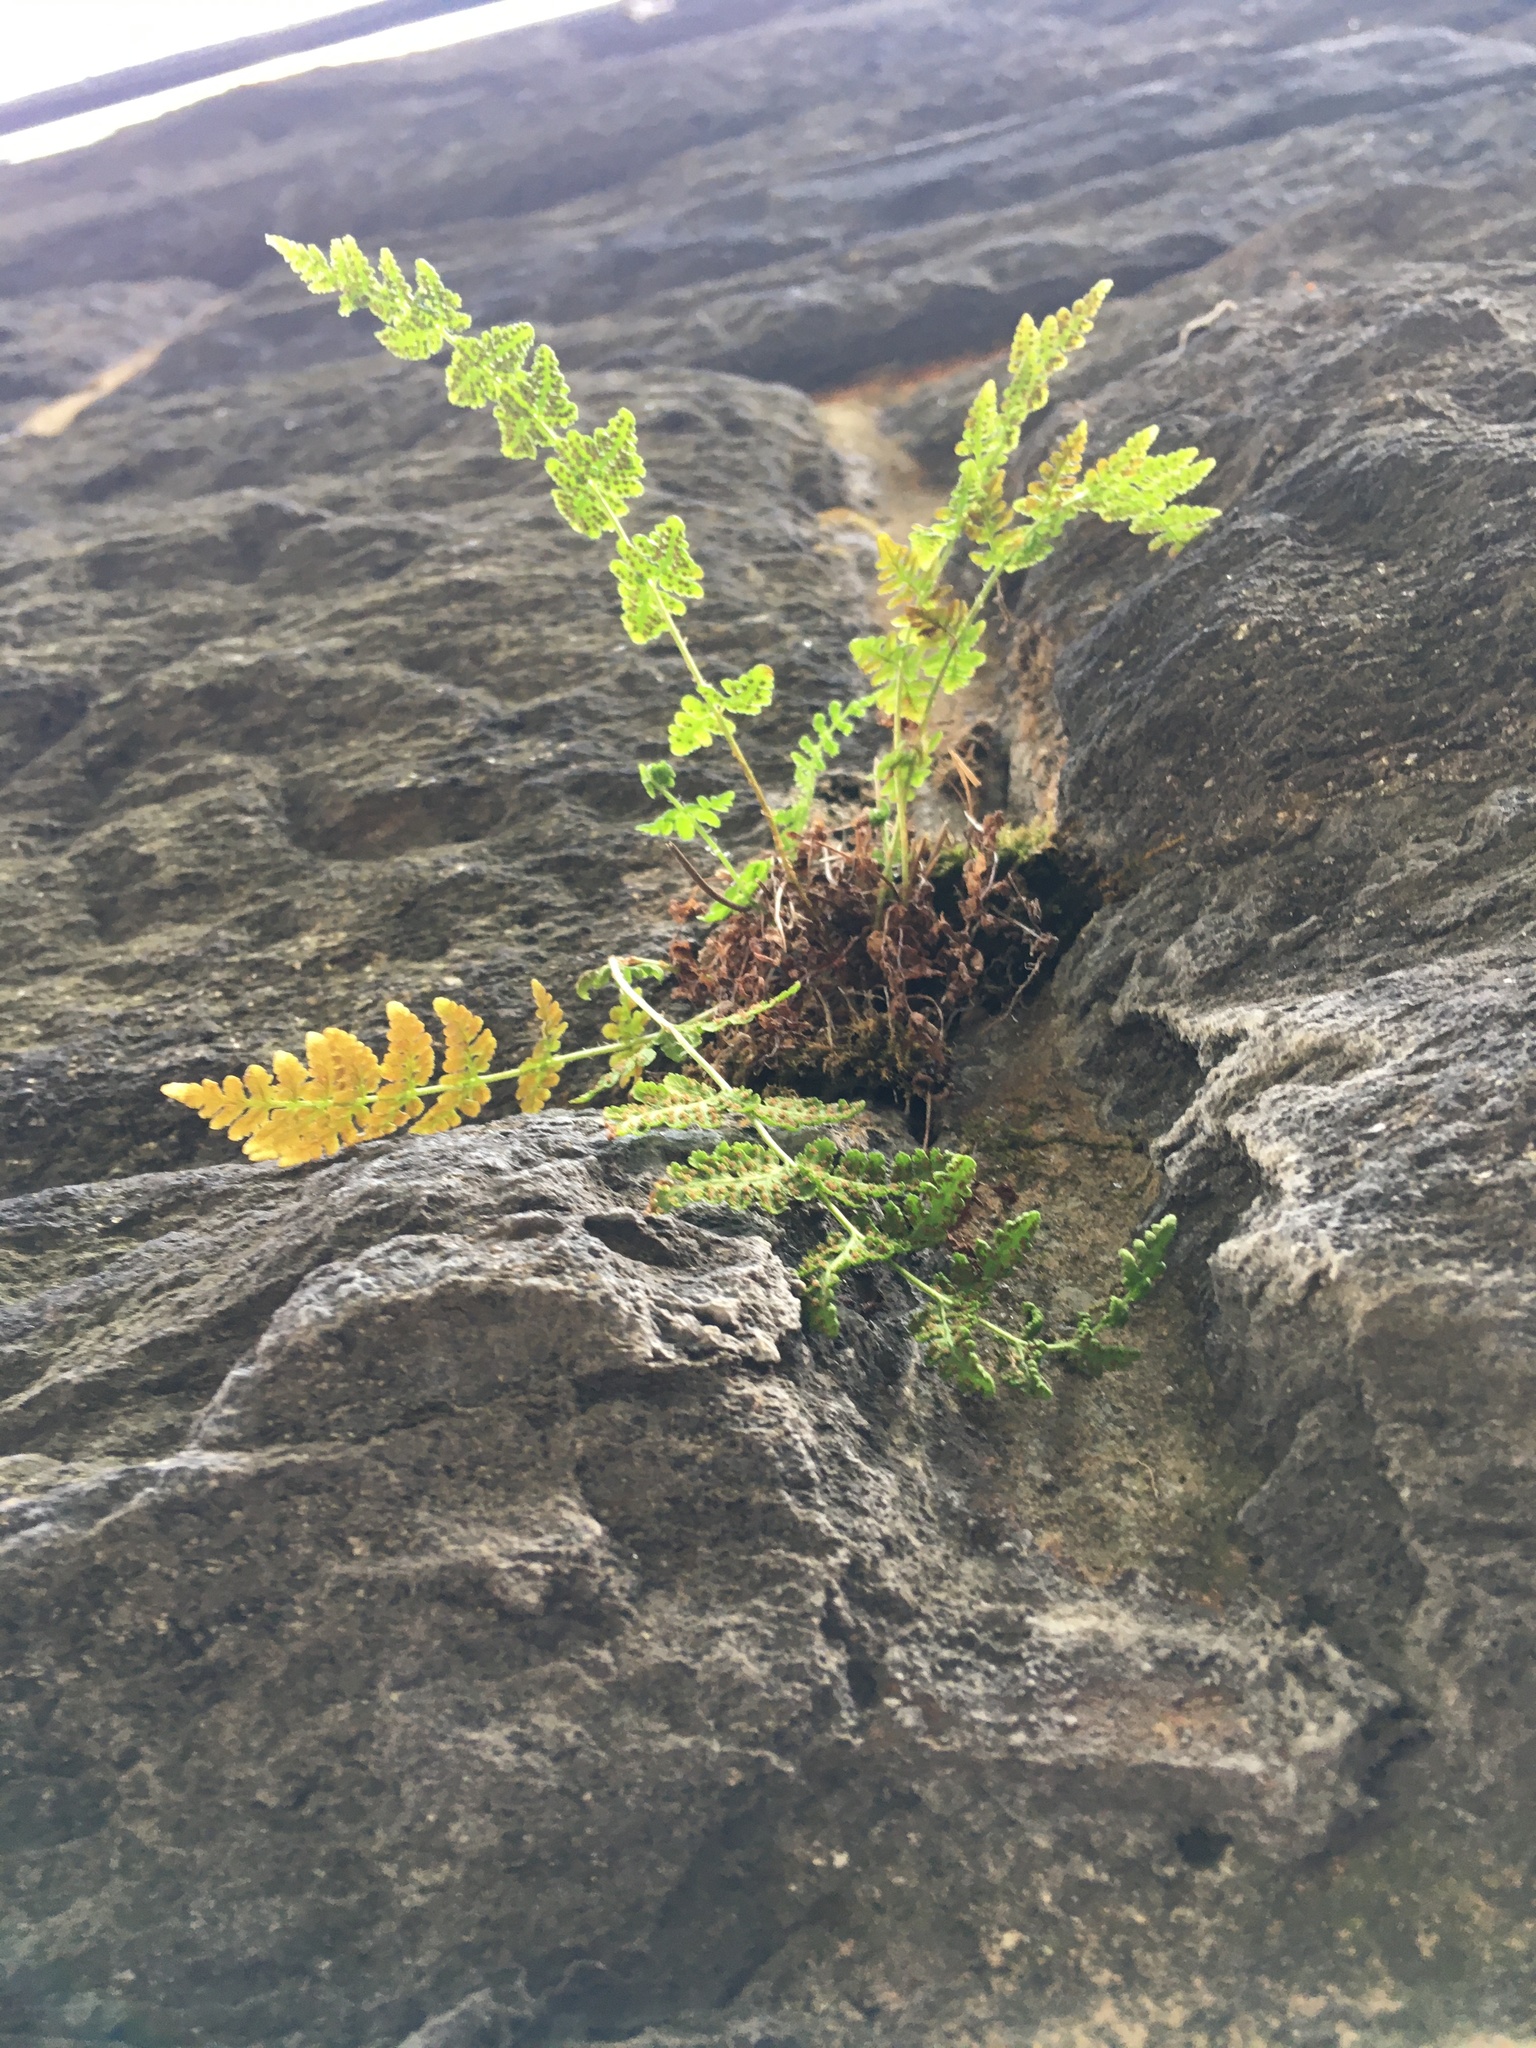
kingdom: Plantae
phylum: Tracheophyta
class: Polypodiopsida
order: Polypodiales
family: Woodsiaceae
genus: Physematium
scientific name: Physematium obtusum
